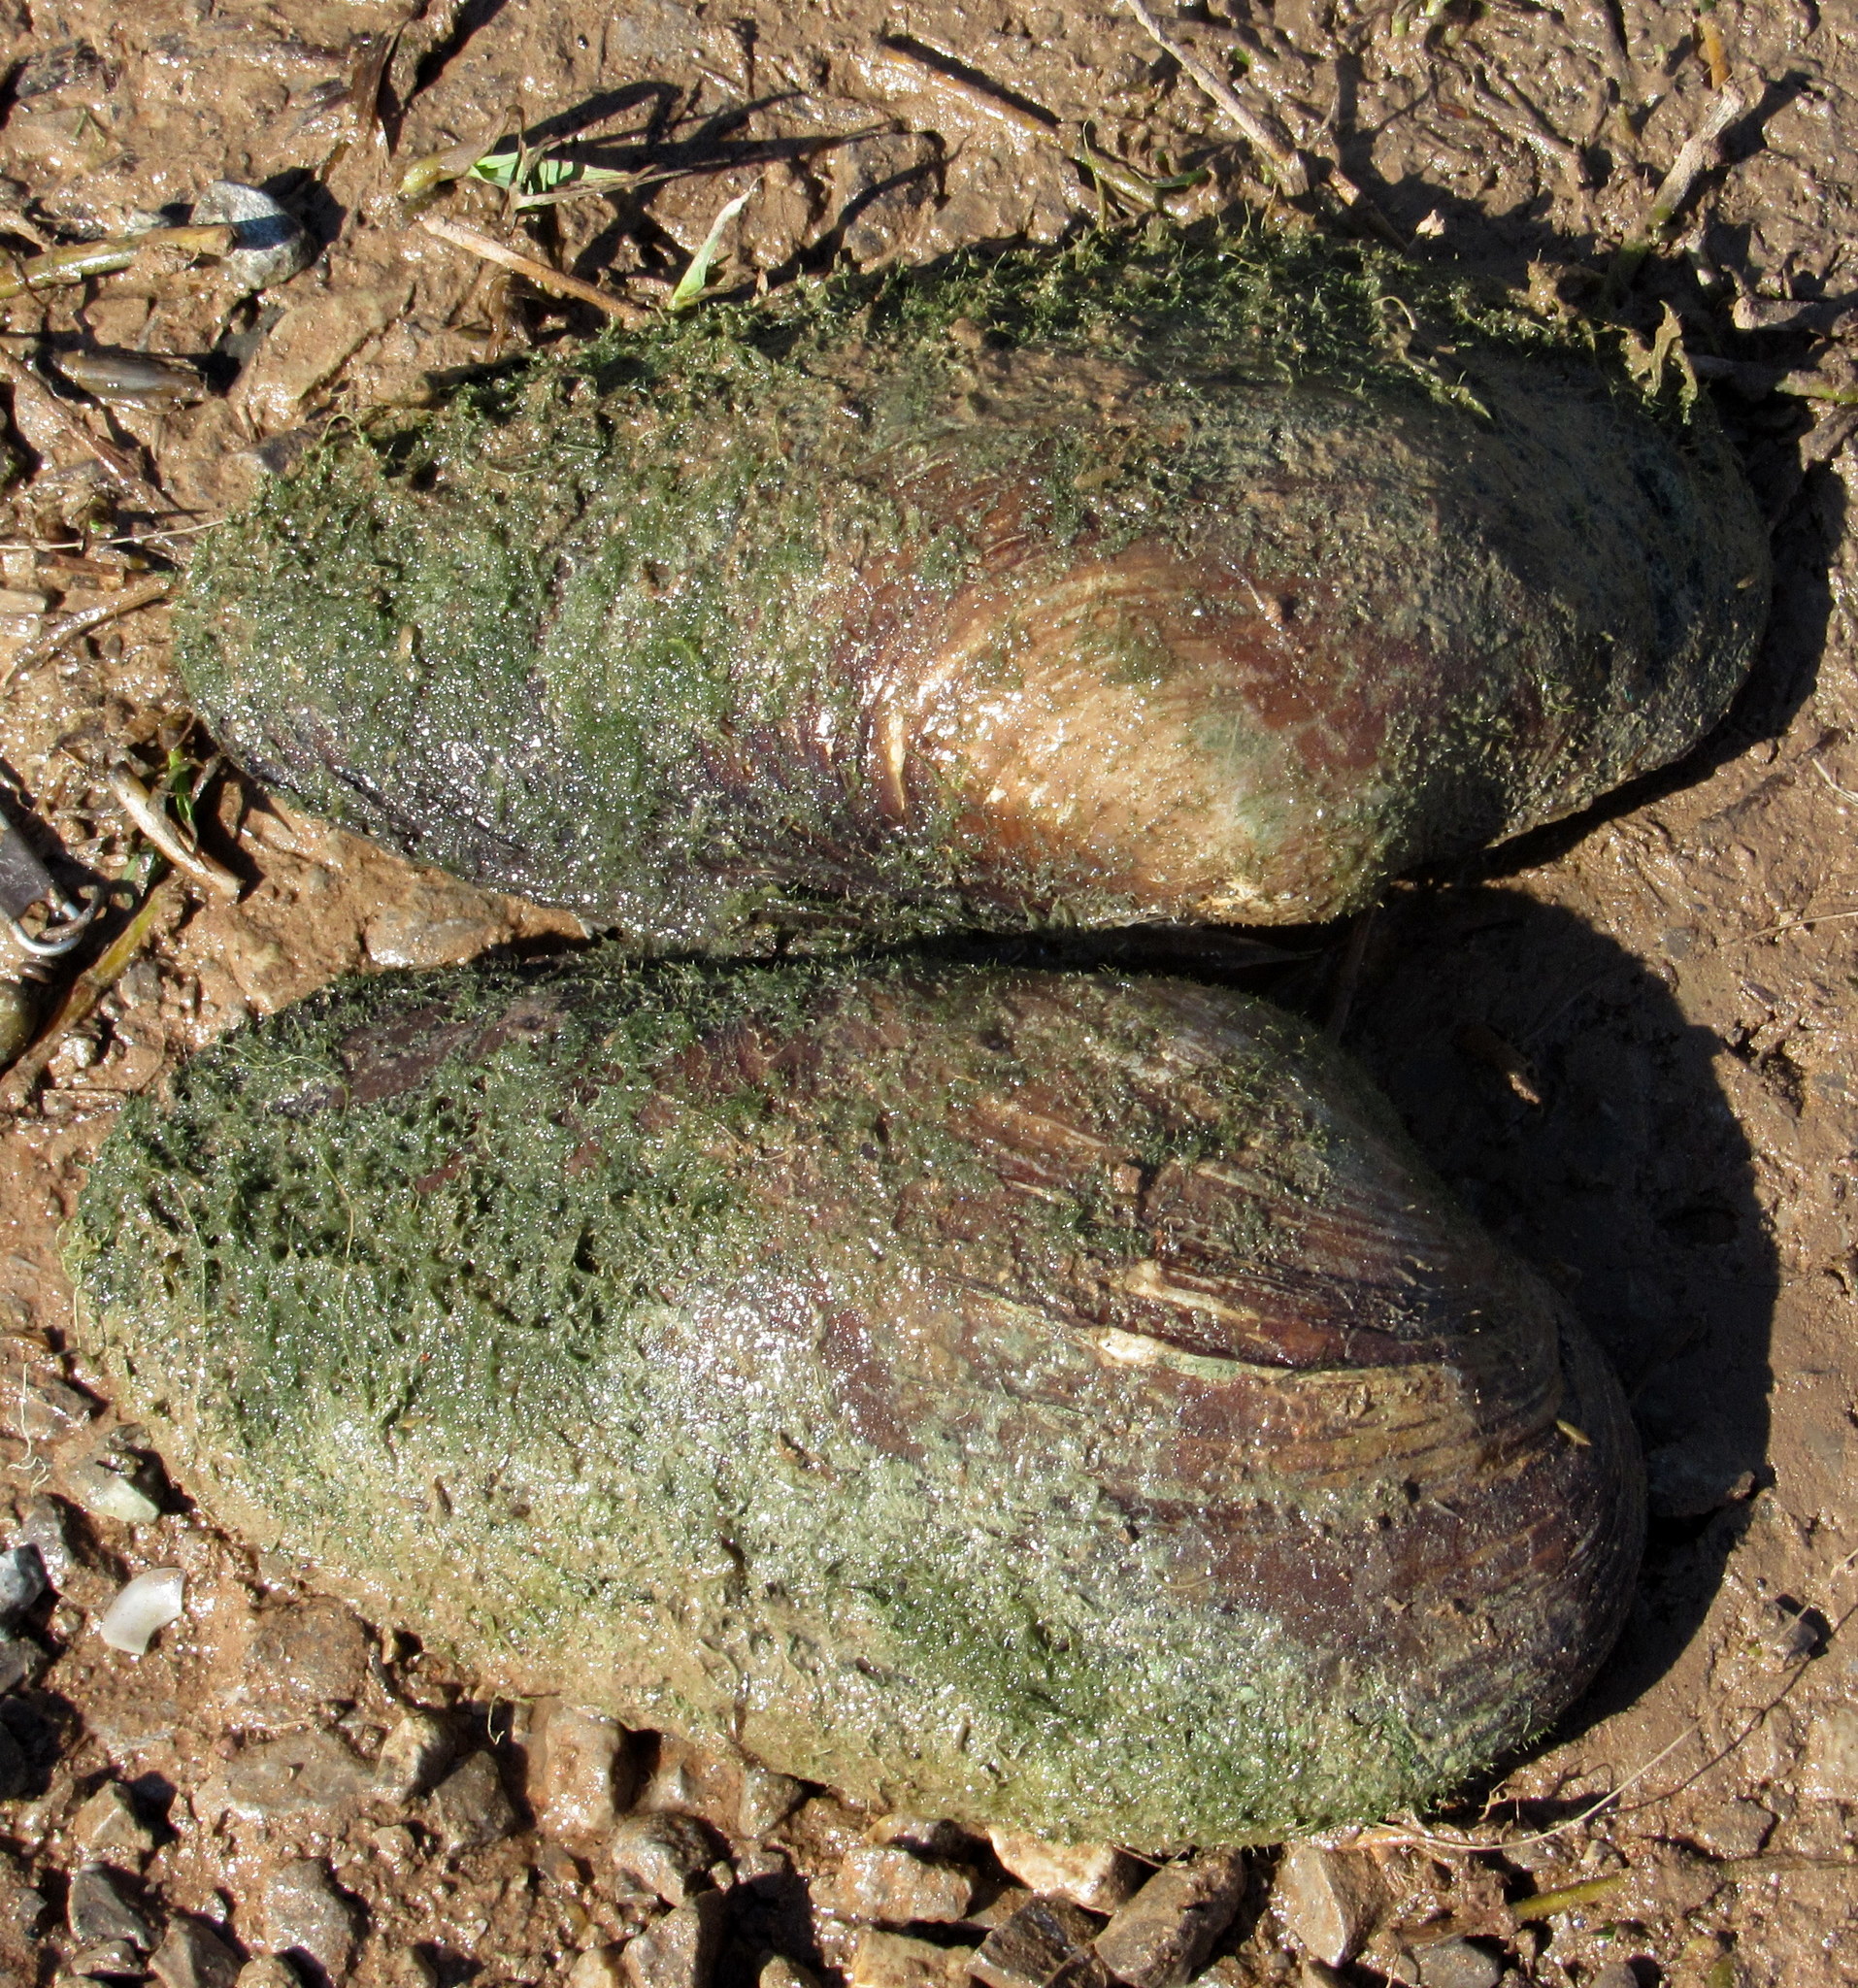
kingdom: Animalia
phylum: Mollusca
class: Bivalvia
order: Unionida
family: Unionidae
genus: Pyganodon
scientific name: Pyganodon grandis
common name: Giant floater
